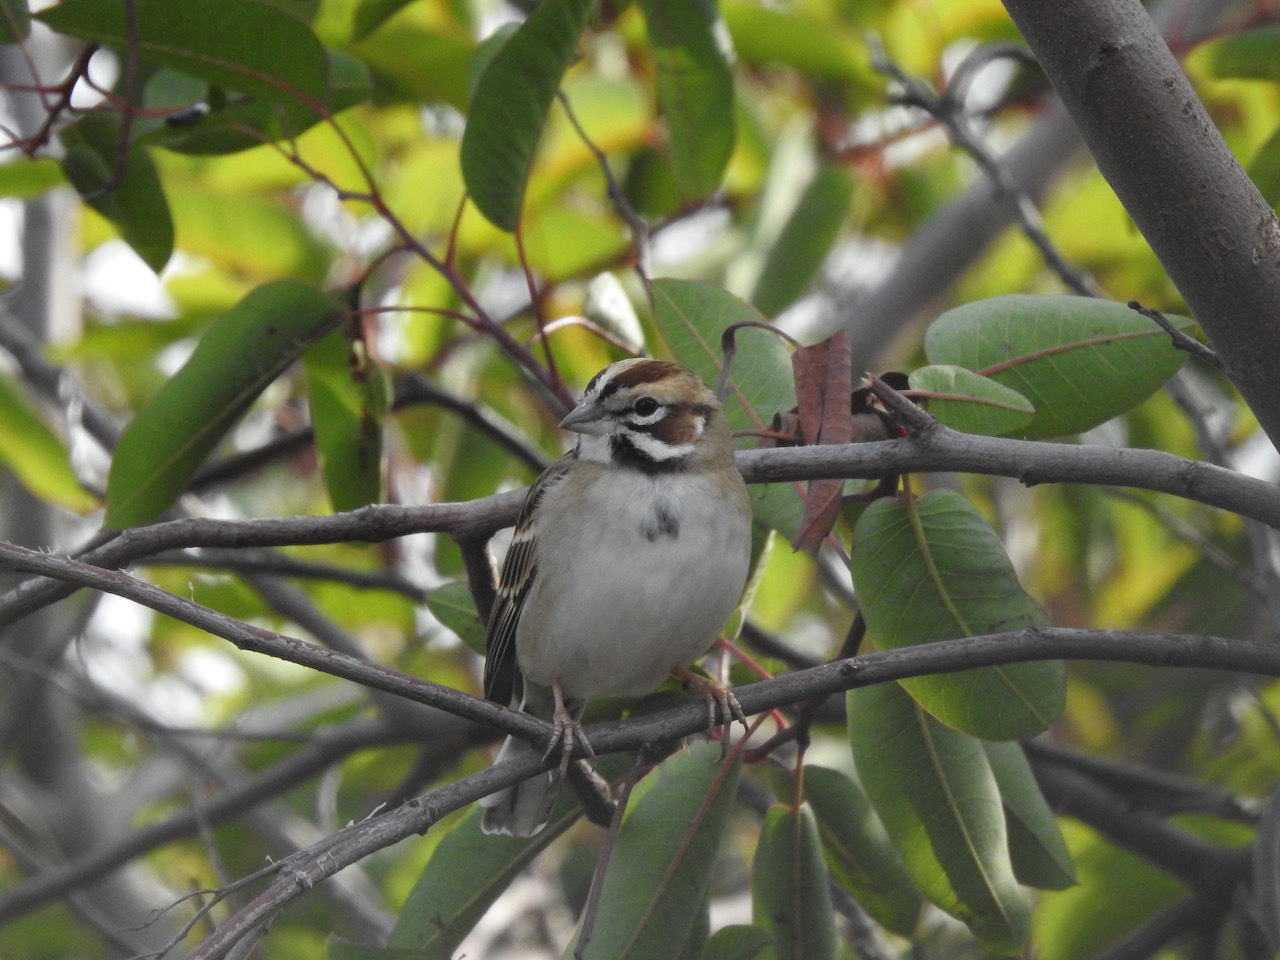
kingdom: Animalia
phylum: Chordata
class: Aves
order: Passeriformes
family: Passerellidae
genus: Chondestes
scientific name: Chondestes grammacus
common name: Lark sparrow
